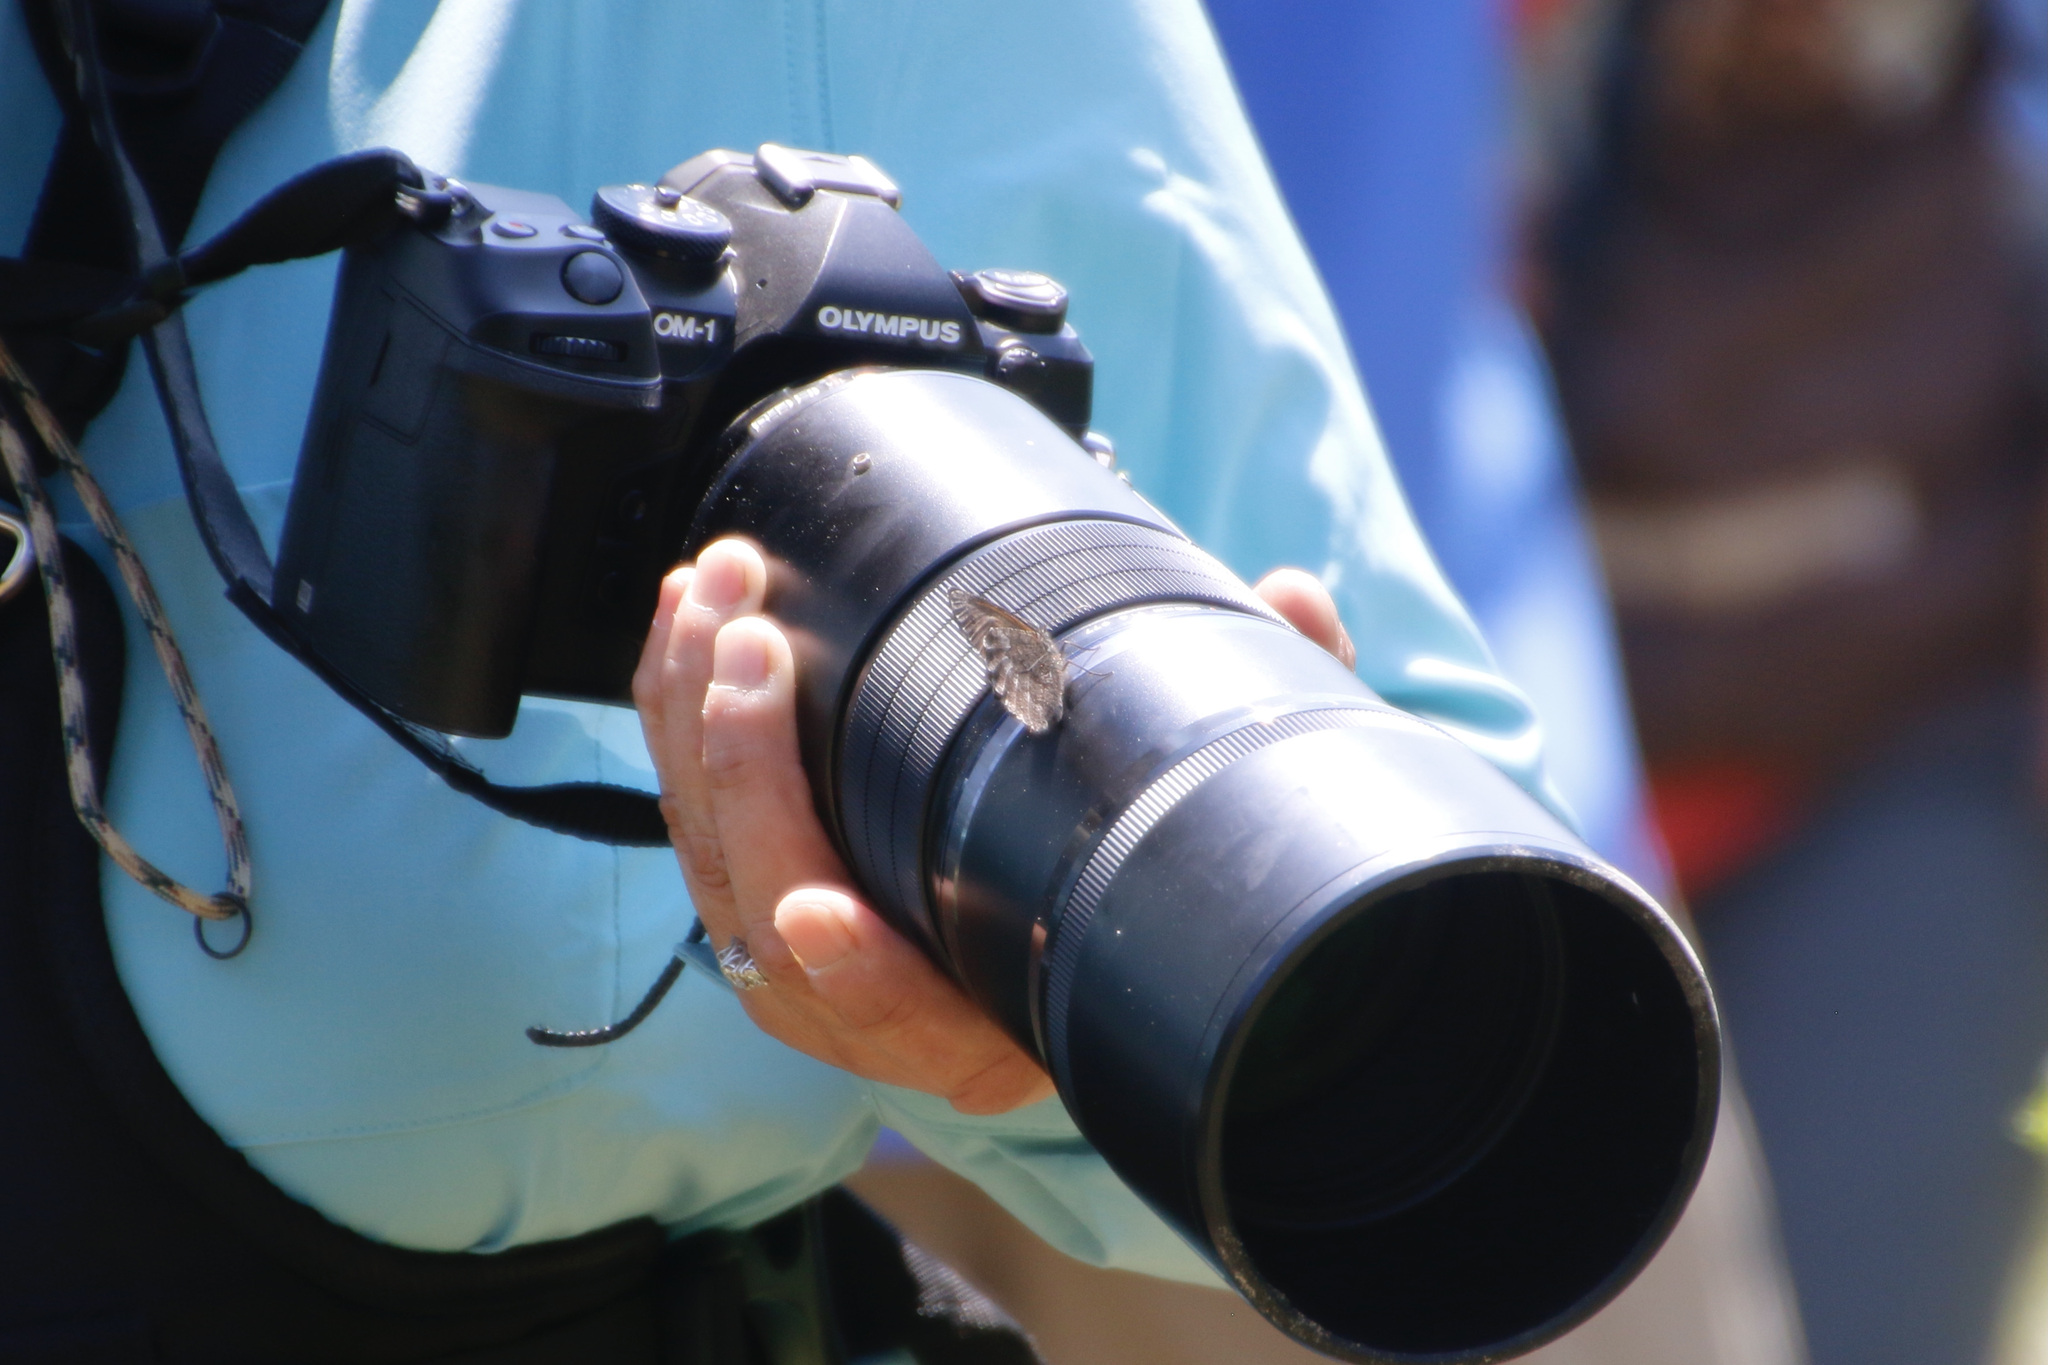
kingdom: Animalia
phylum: Arthropoda
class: Insecta
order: Lepidoptera
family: Nymphalidae
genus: Oeneis
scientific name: Oeneis jutta
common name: Baltic grayling
